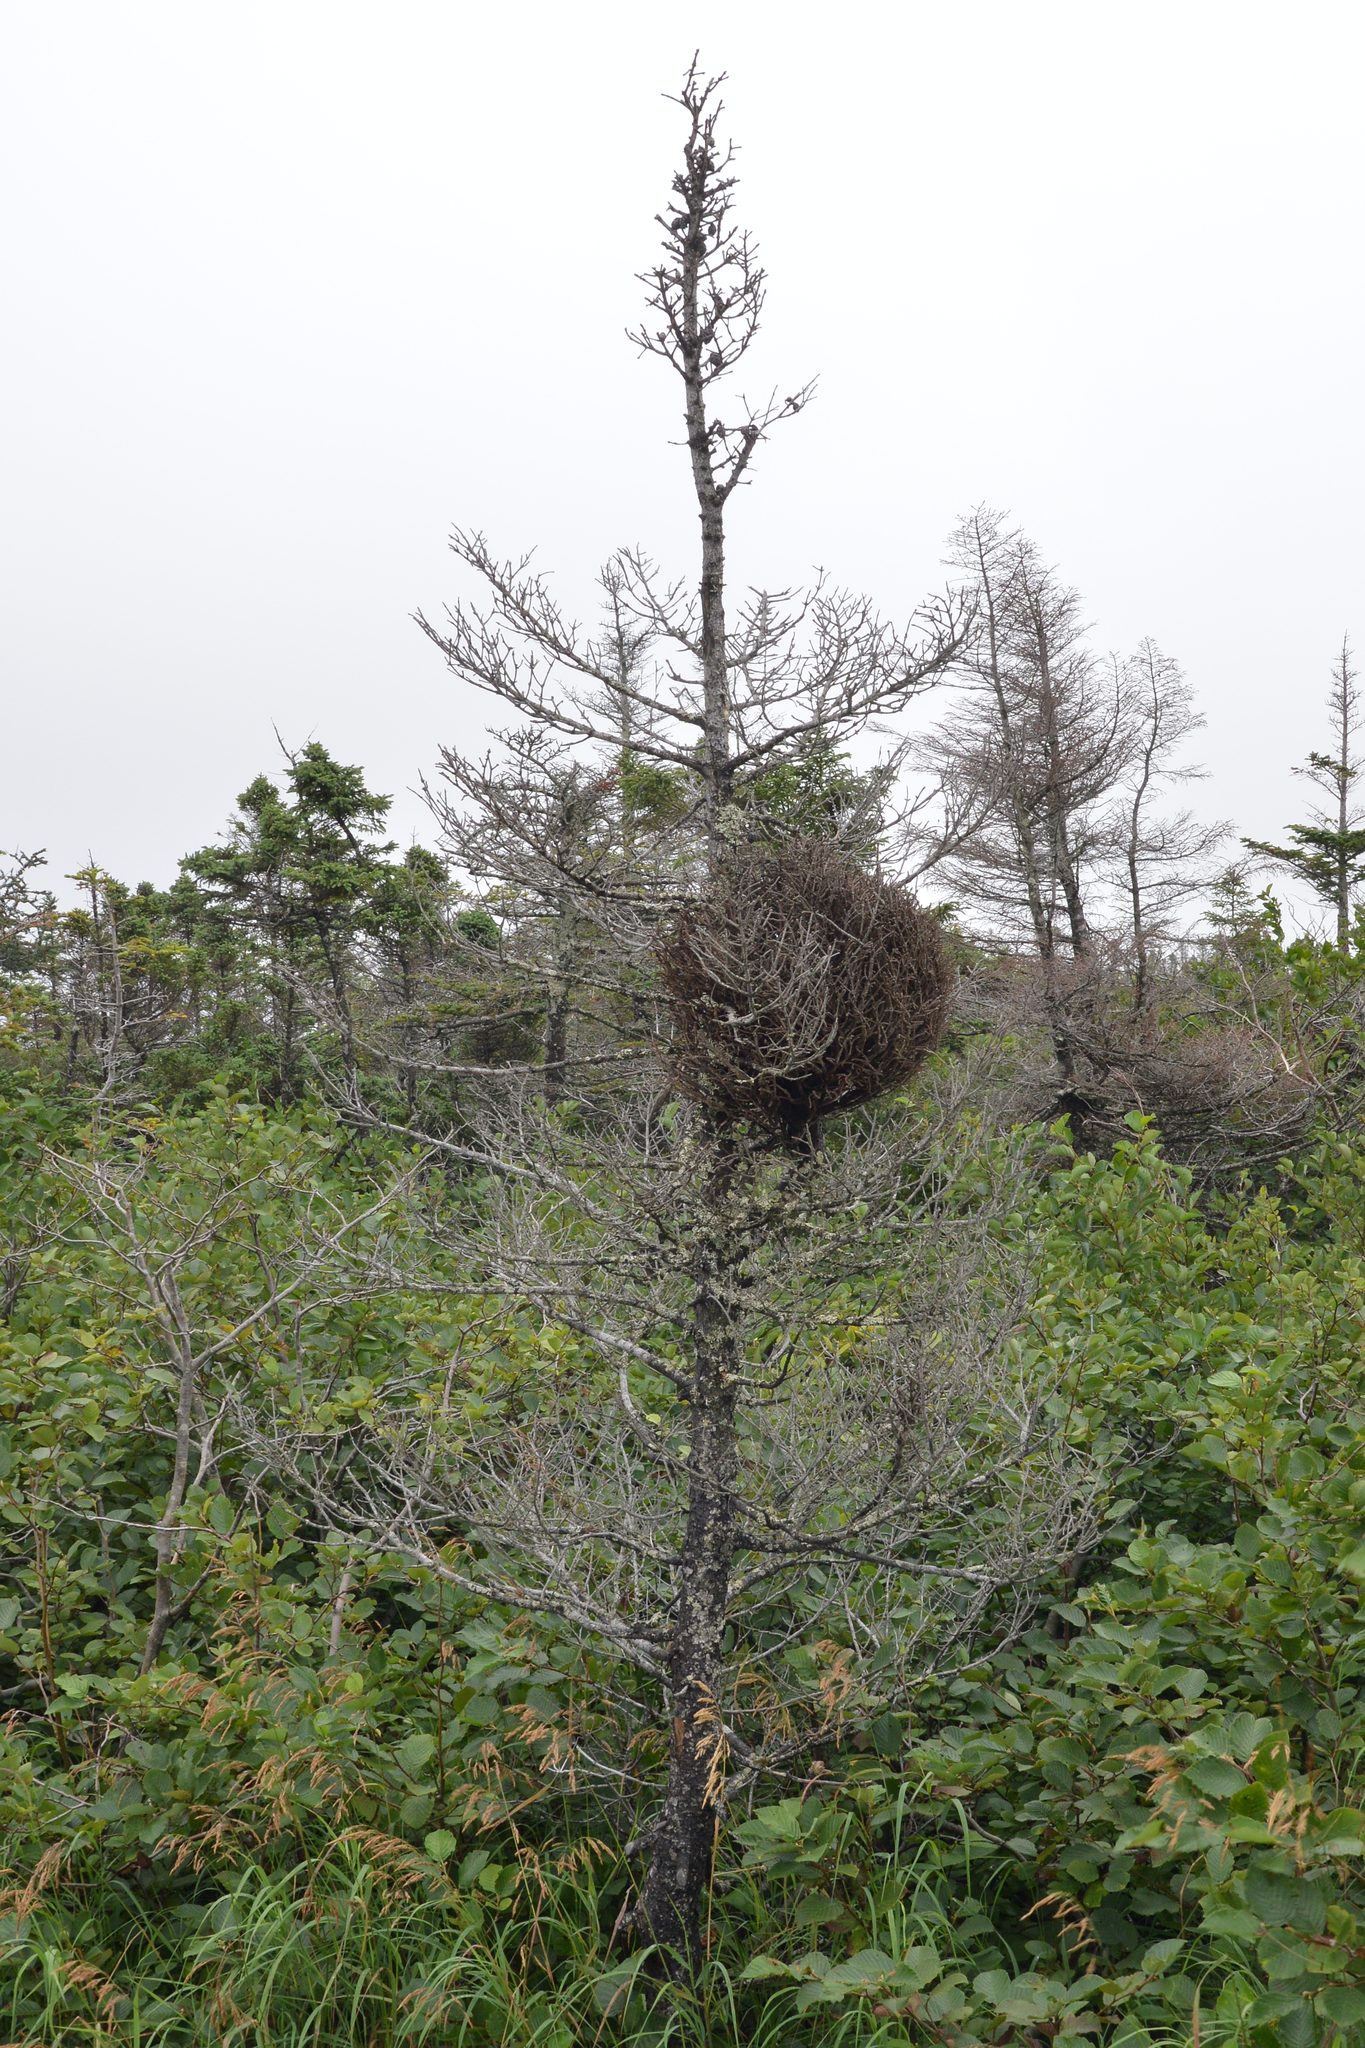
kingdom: Plantae
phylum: Tracheophyta
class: Pinopsida
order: Pinales
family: Pinaceae
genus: Picea
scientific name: Picea mariana
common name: Black spruce
